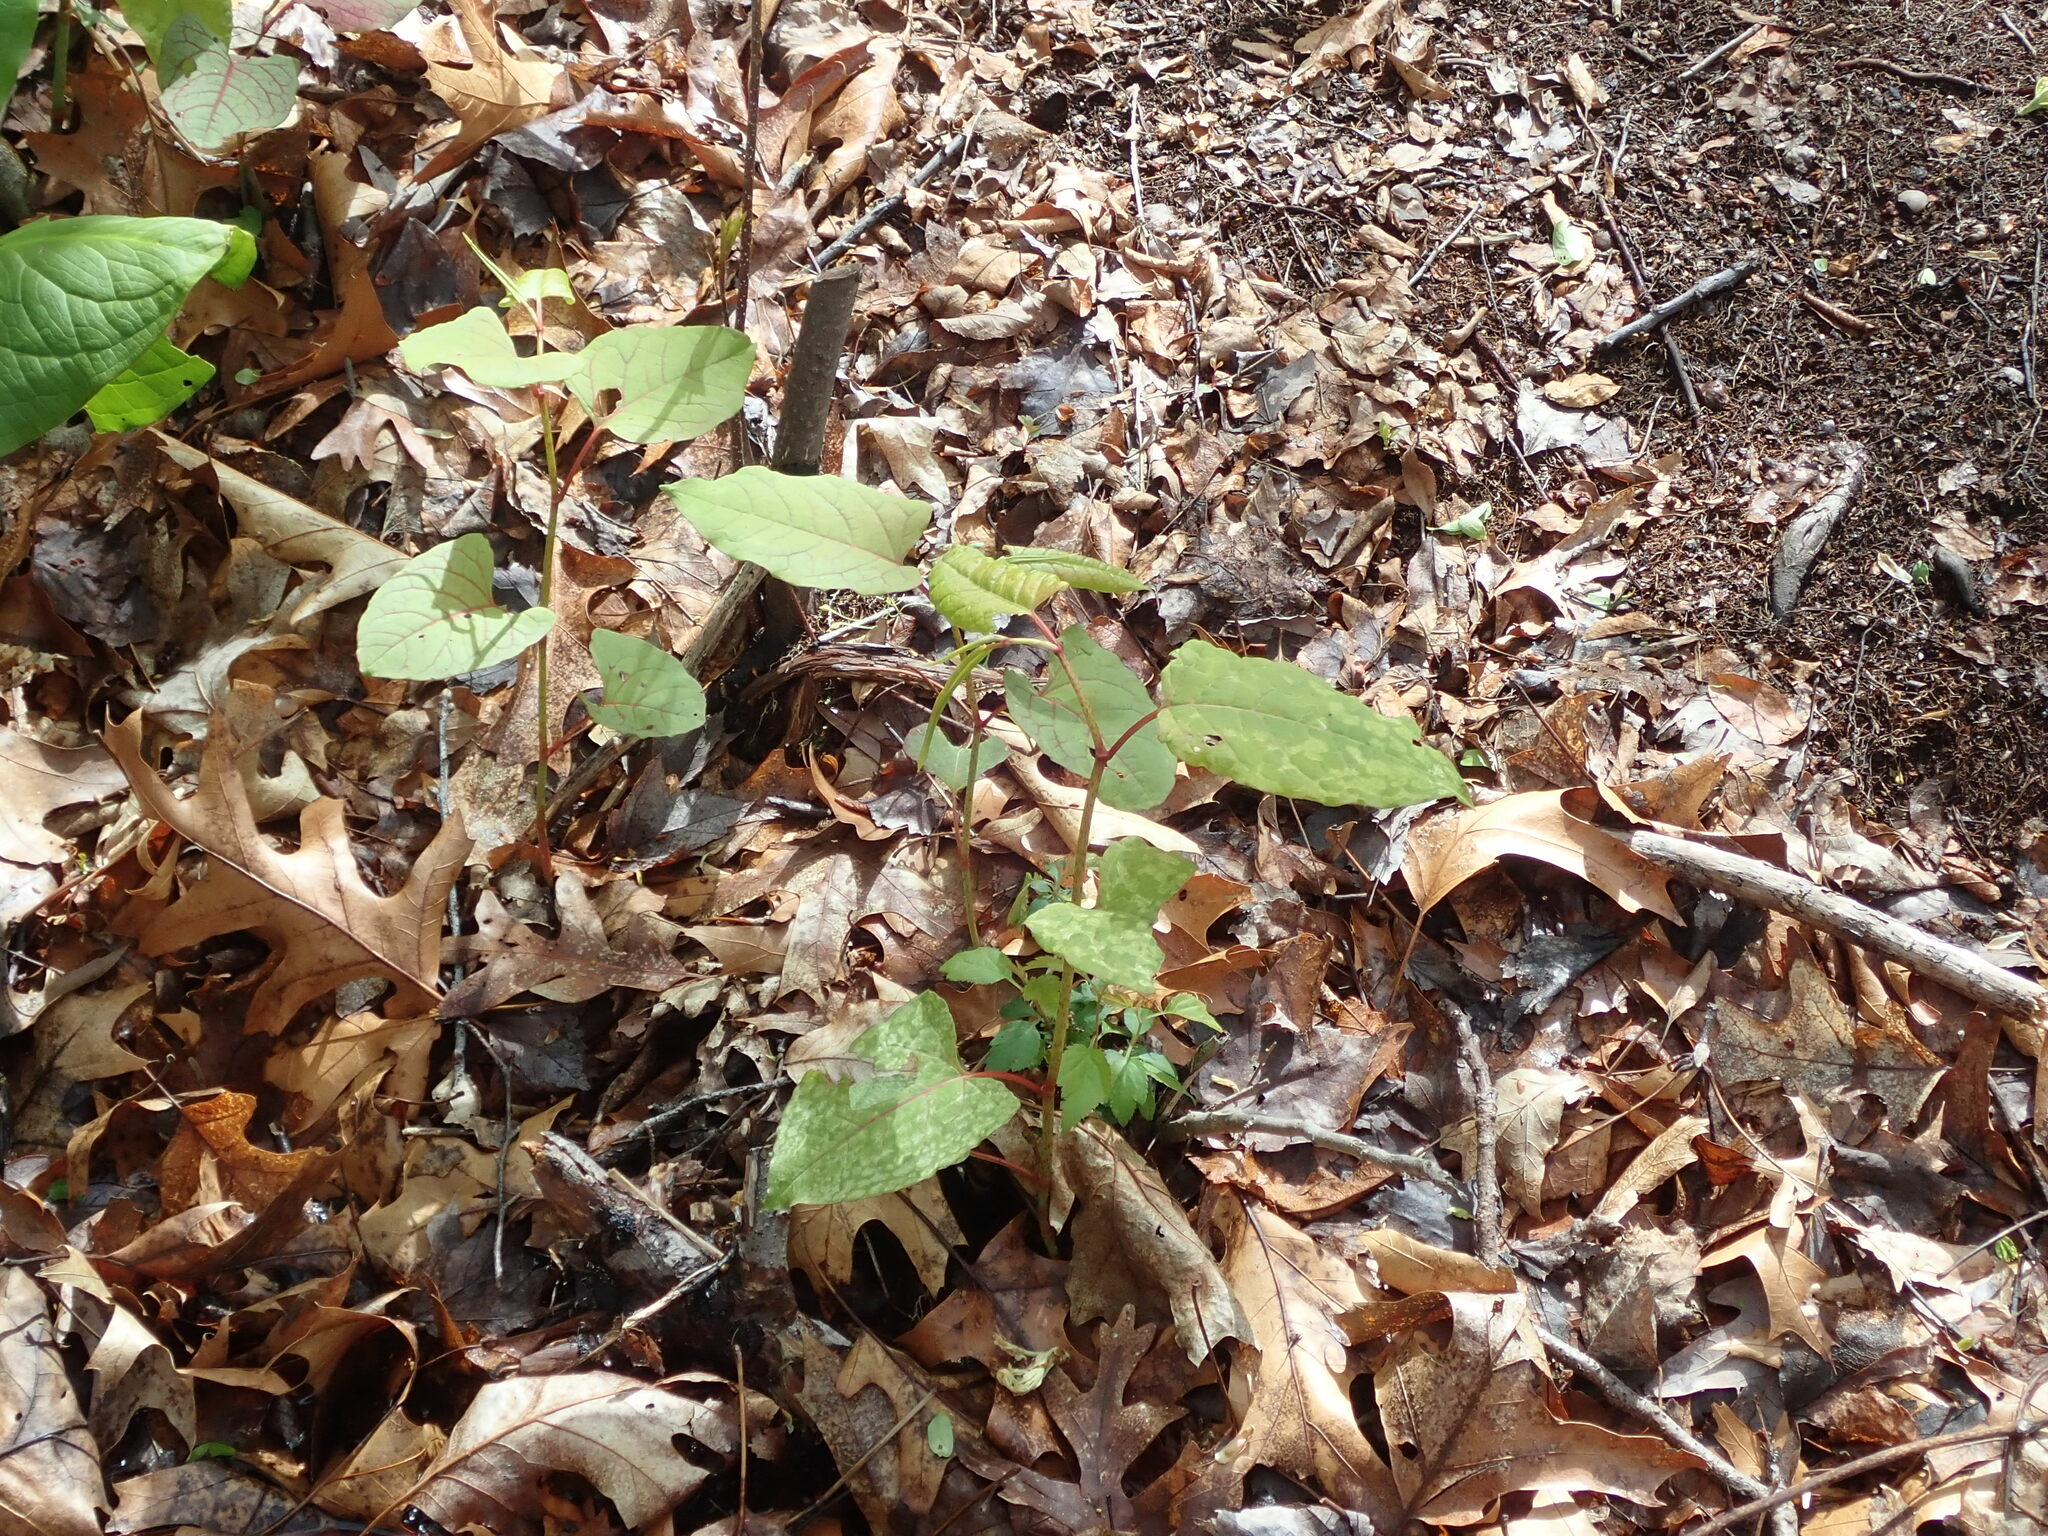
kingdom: Plantae
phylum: Tracheophyta
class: Magnoliopsida
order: Caryophyllales
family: Polygonaceae
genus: Reynoutria
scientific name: Reynoutria japonica
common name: Japanese knotweed
